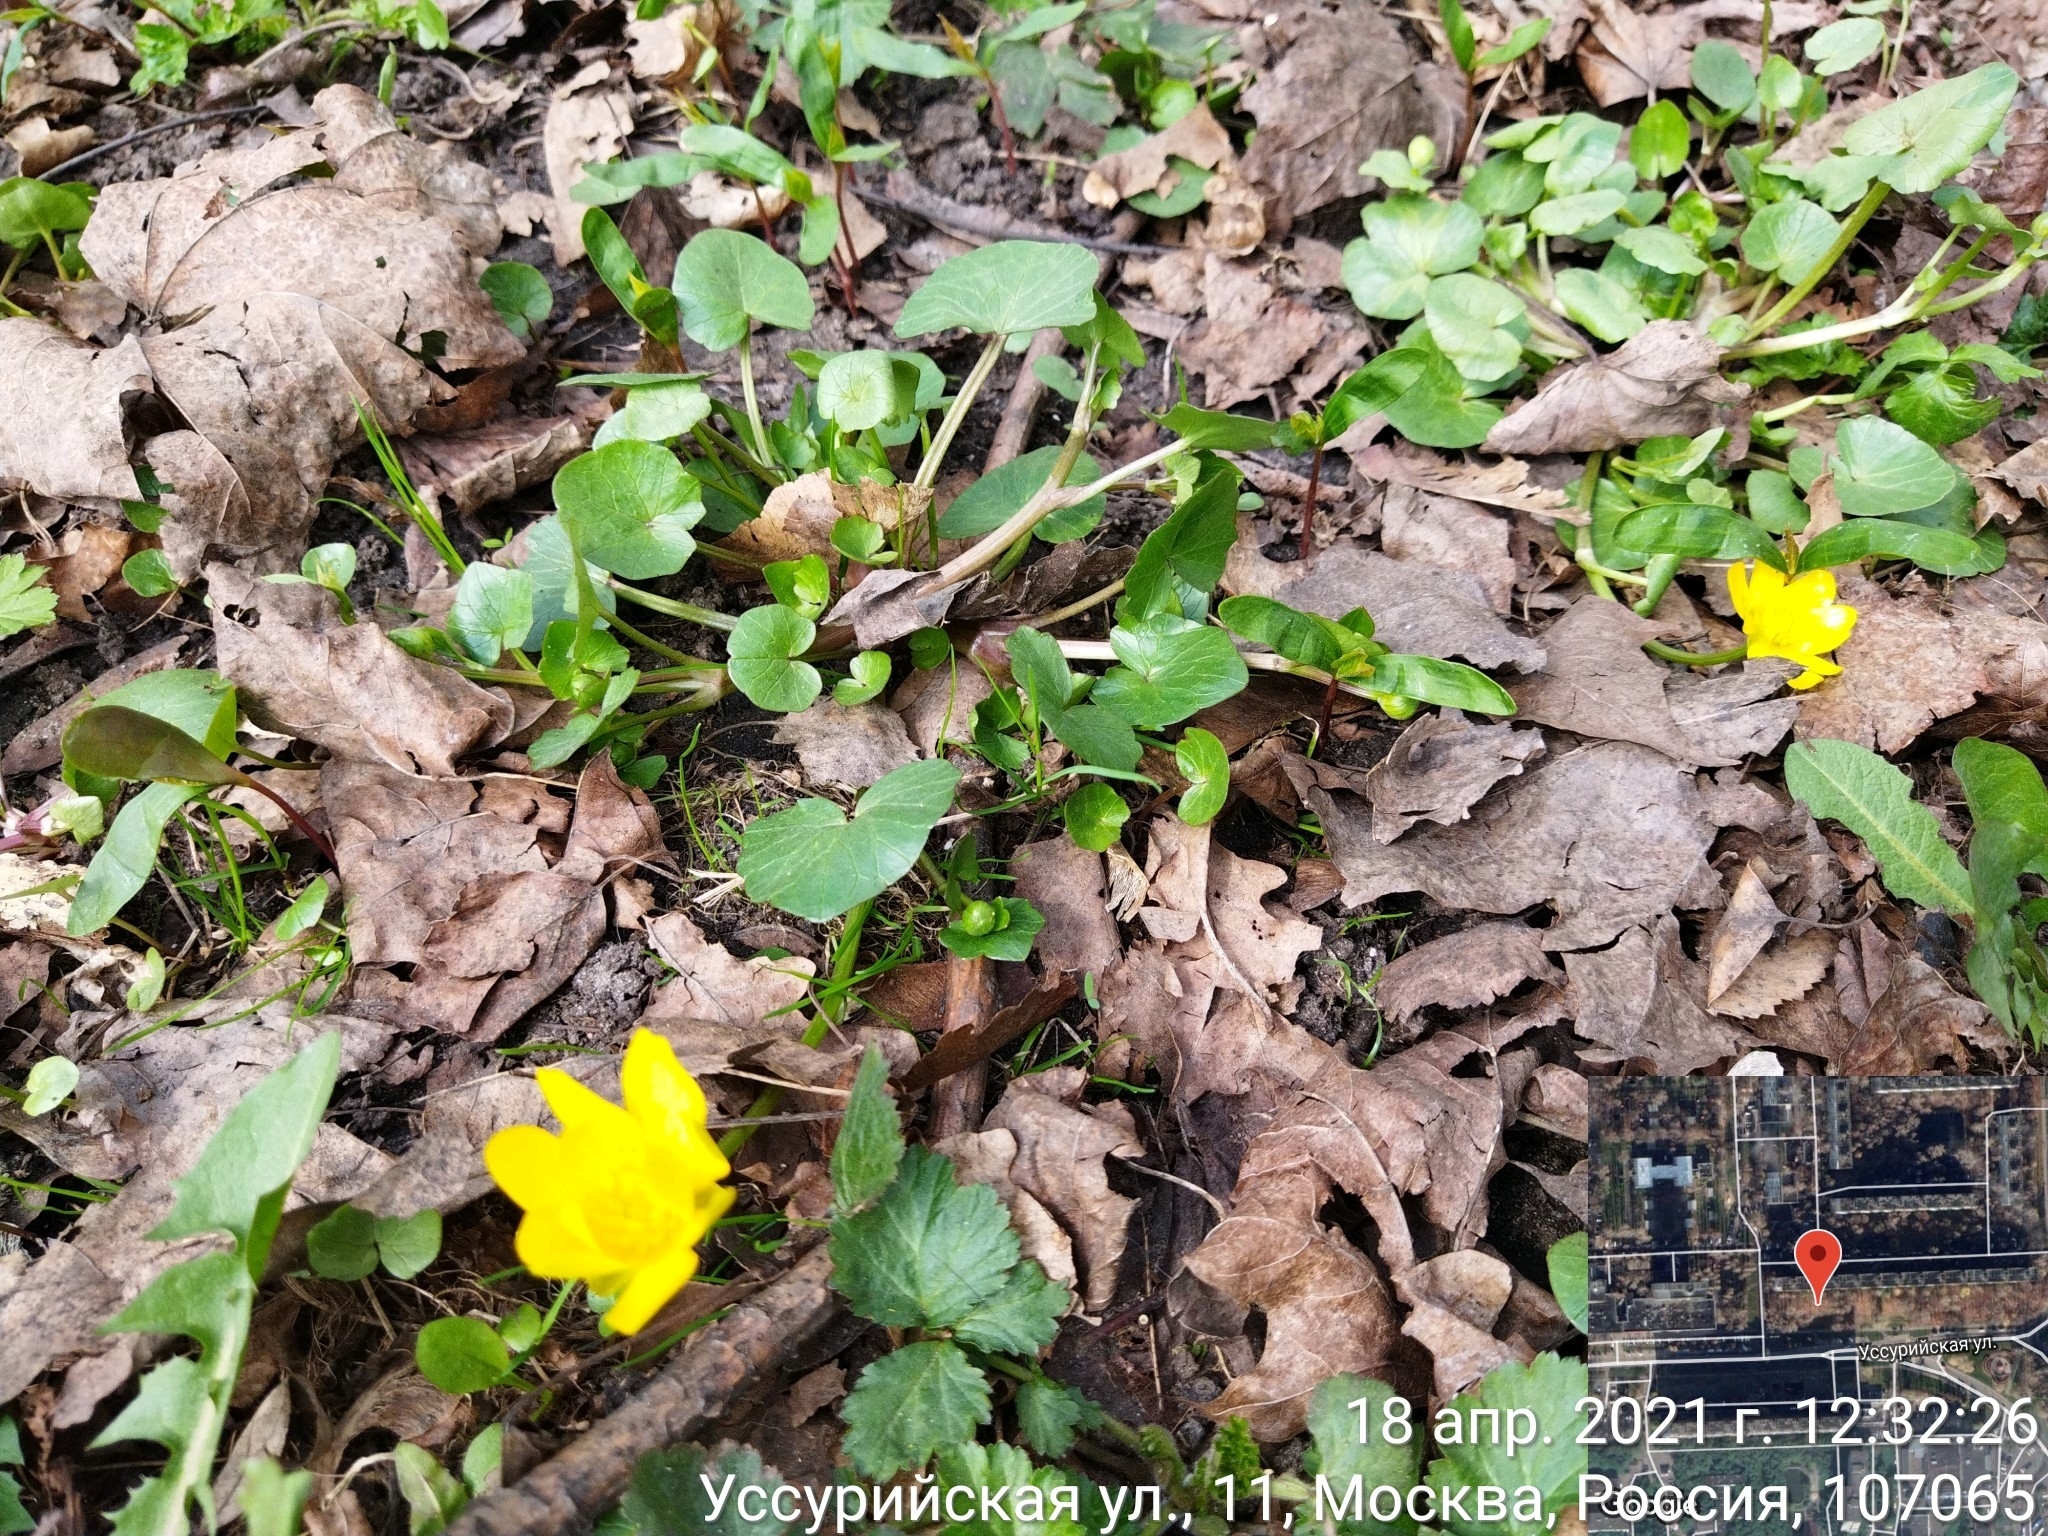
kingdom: Plantae
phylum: Tracheophyta
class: Magnoliopsida
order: Ranunculales
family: Ranunculaceae
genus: Ficaria
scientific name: Ficaria verna
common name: Lesser celandine
